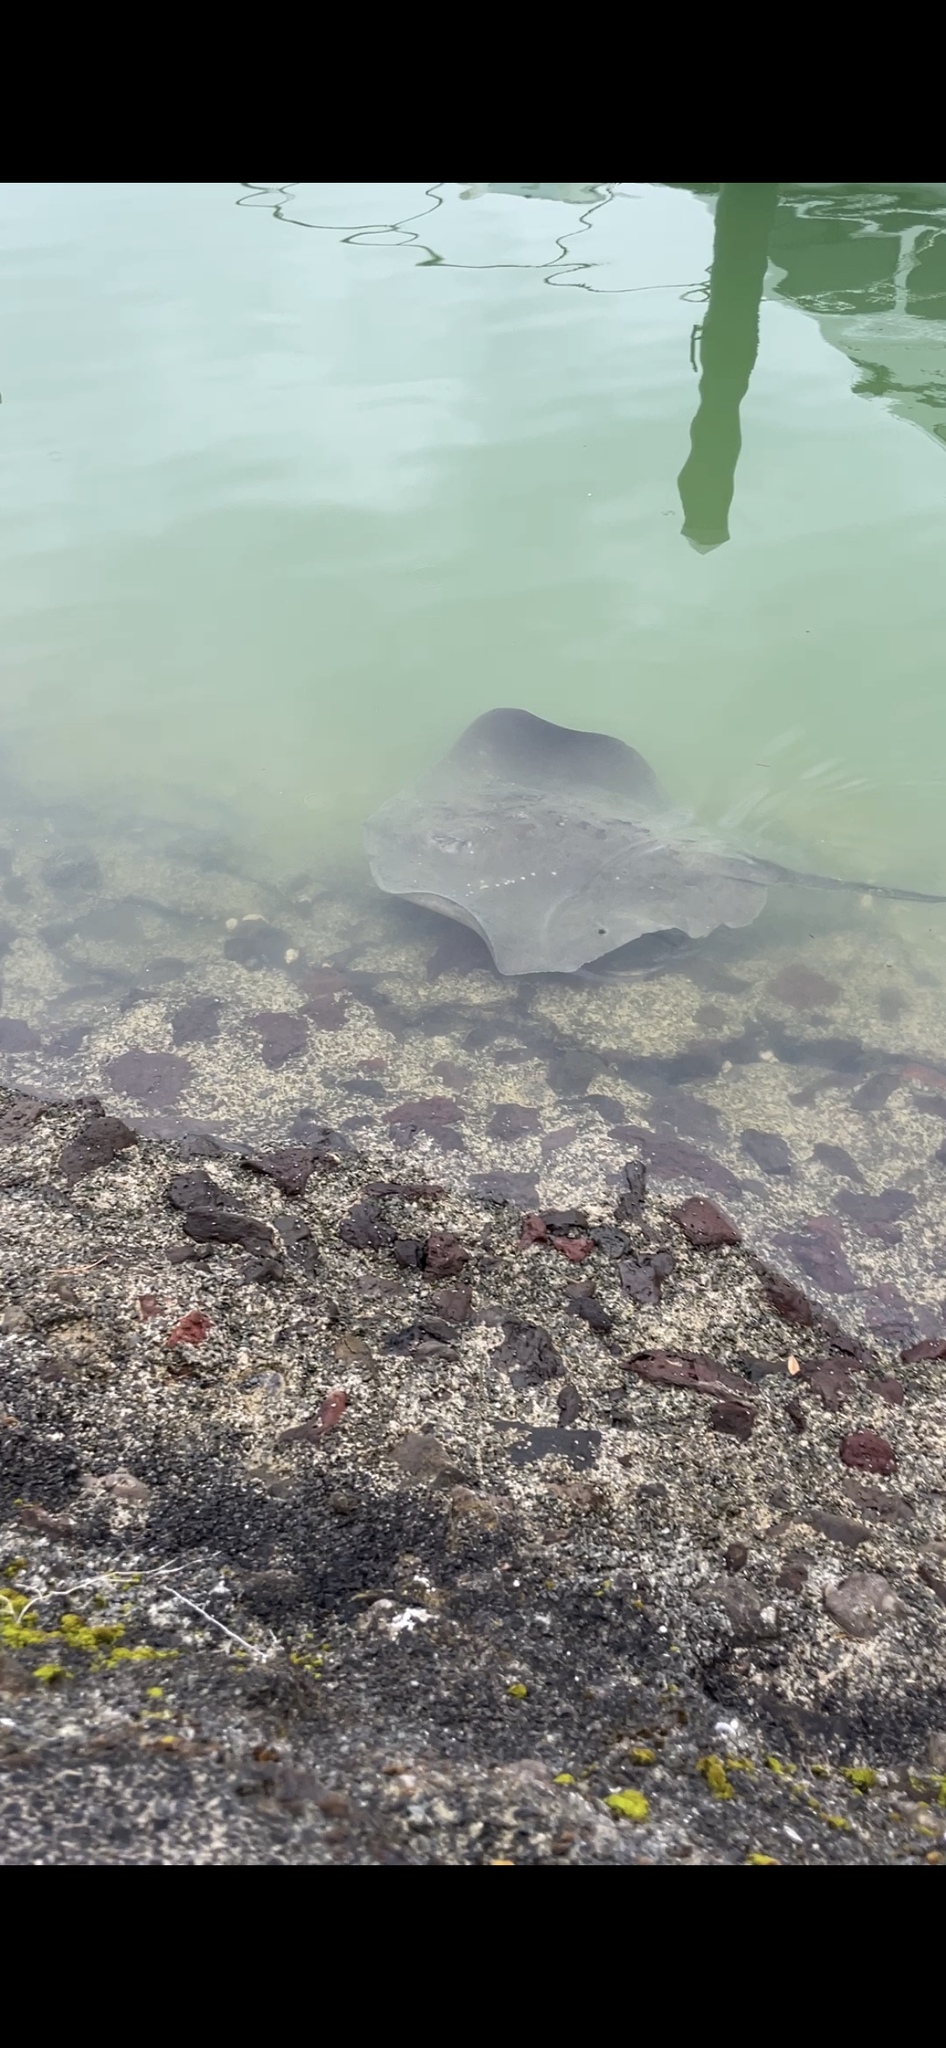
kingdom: Animalia
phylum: Chordata
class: Elasmobranchii
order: Myliobatiformes
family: Dasyatidae
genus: Bathytoshia
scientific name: Bathytoshia brevicaudata
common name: Short-tail stingray
